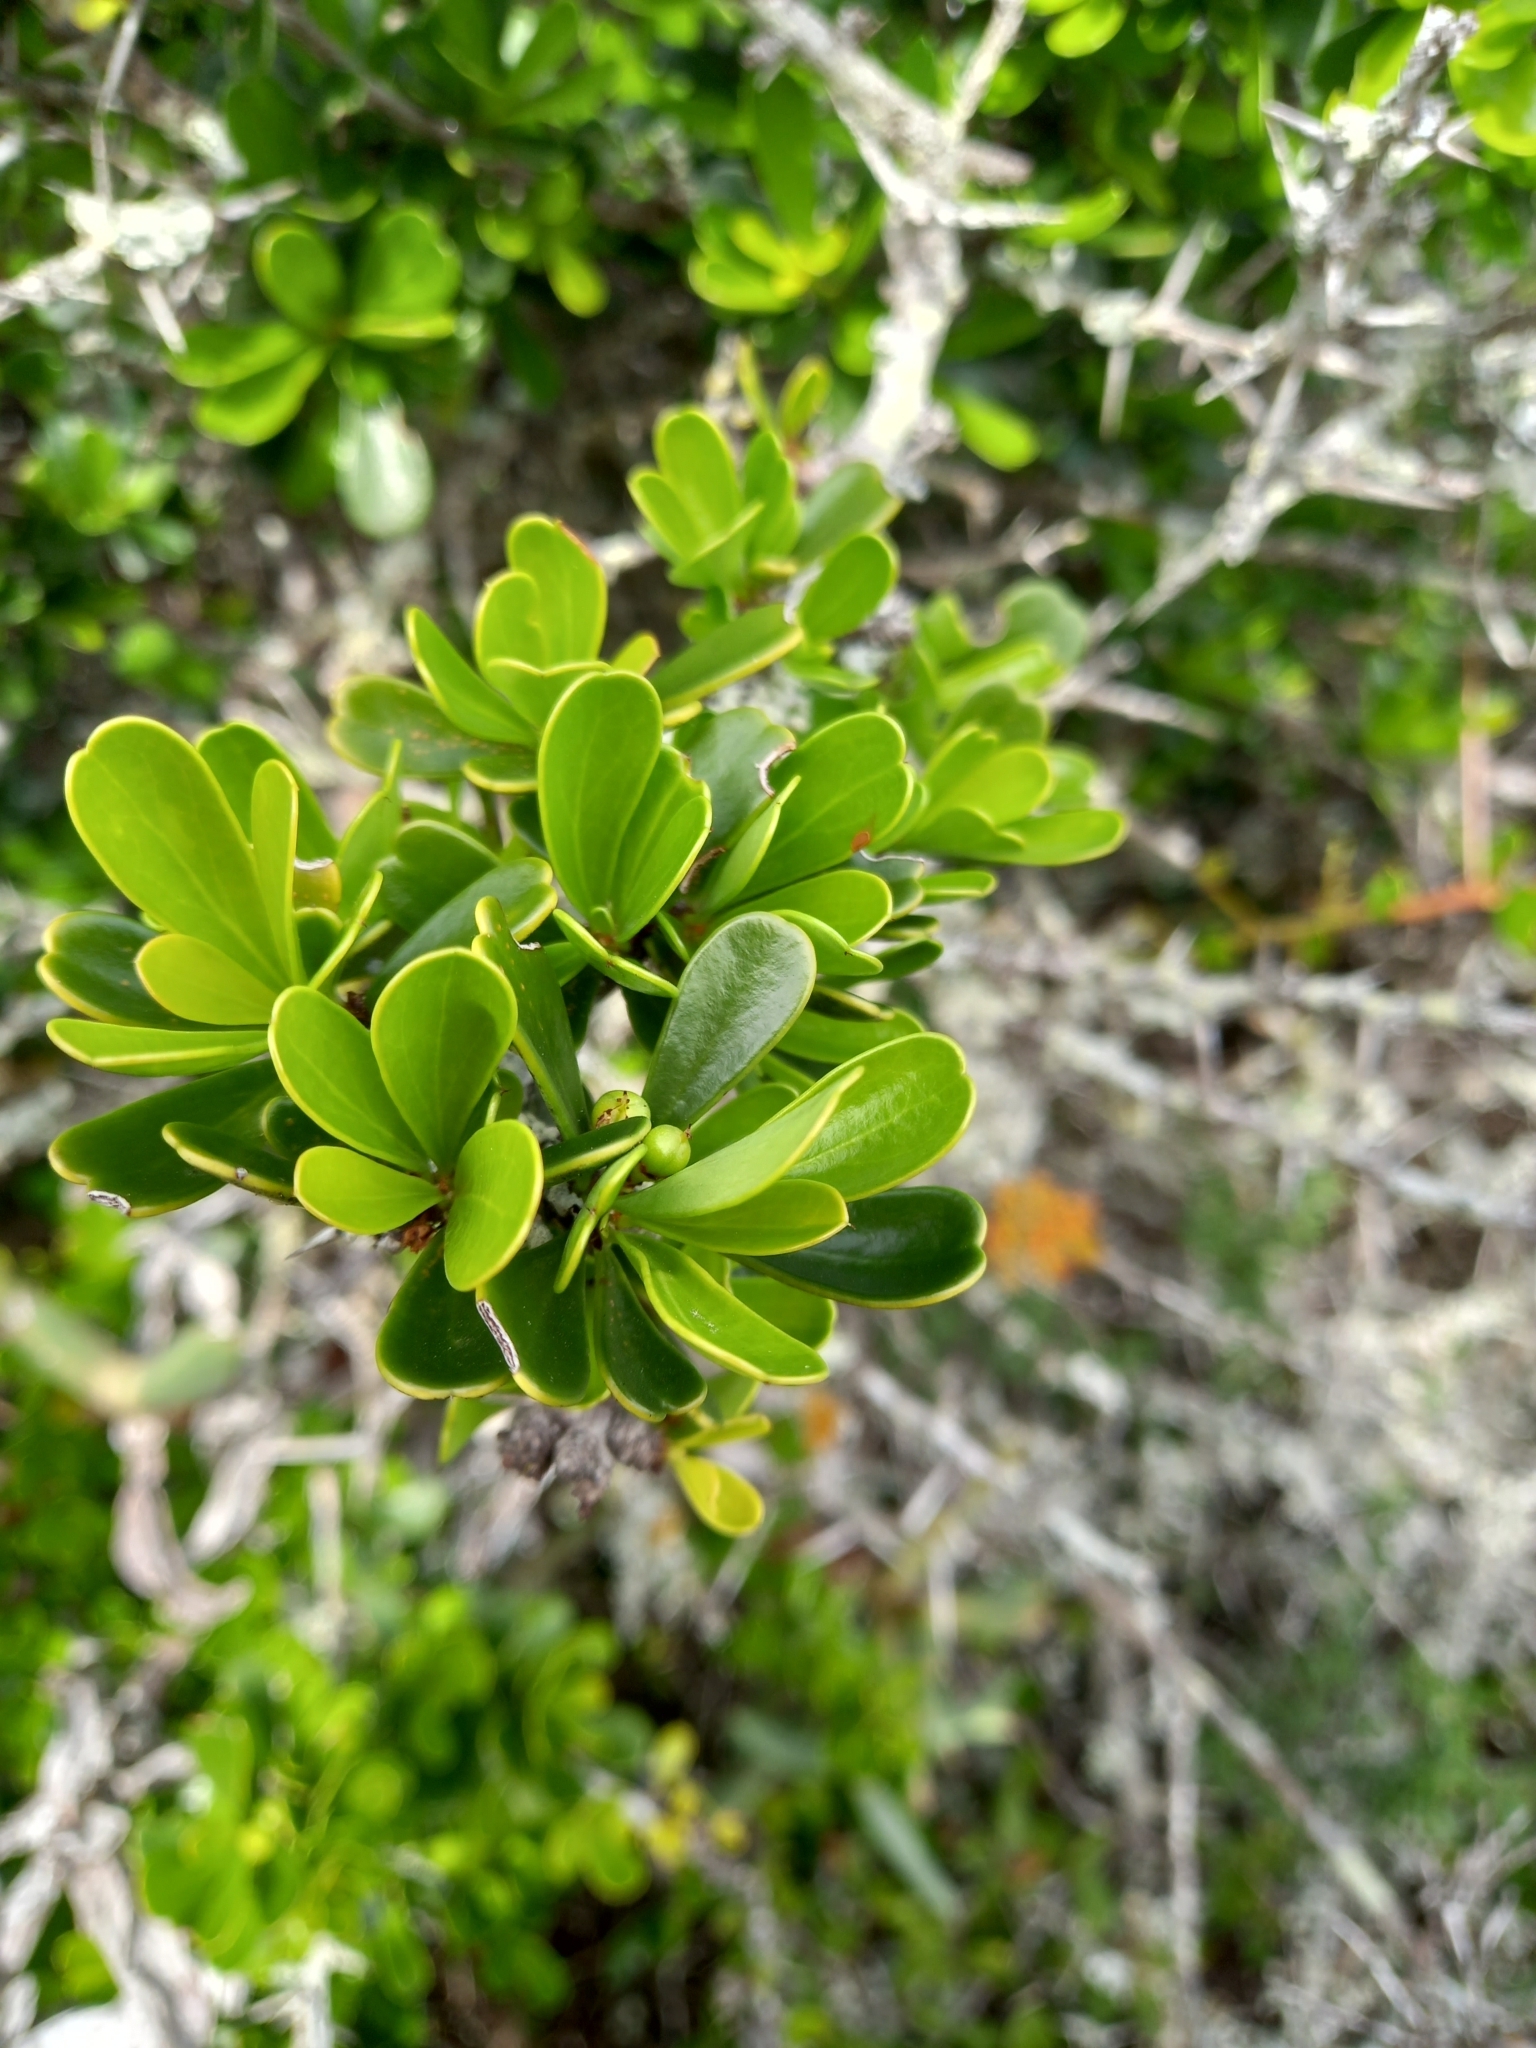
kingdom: Plantae
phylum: Tracheophyta
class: Magnoliopsida
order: Celastrales
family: Celastraceae
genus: Gymnosporia
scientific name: Gymnosporia capitata
